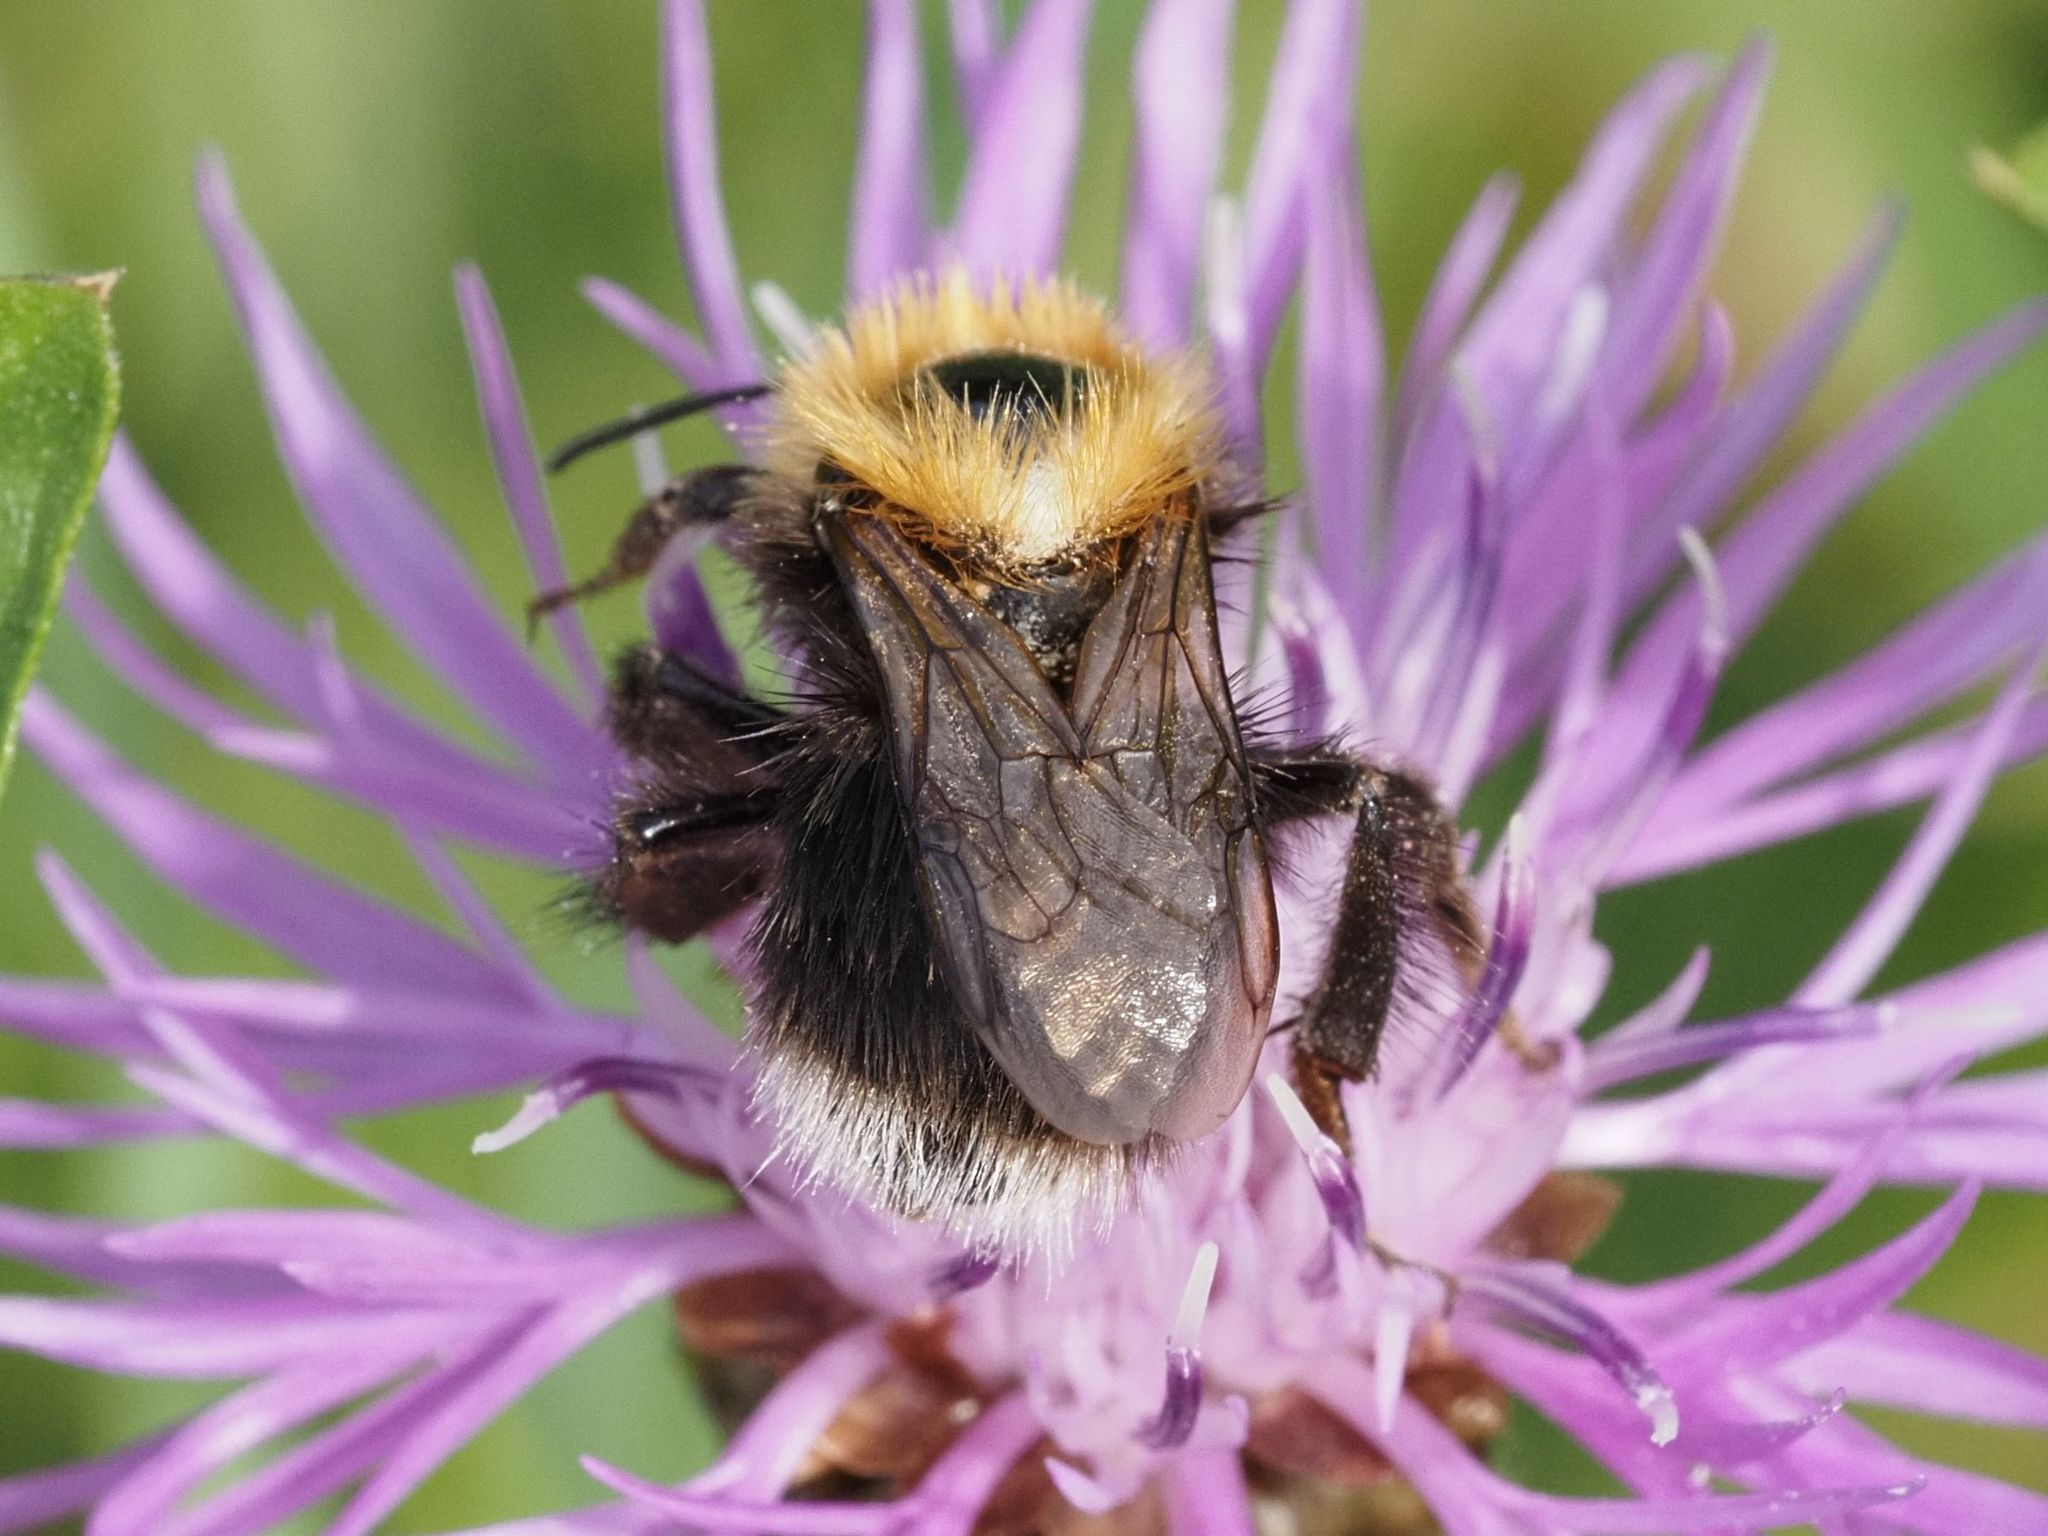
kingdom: Animalia
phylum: Arthropoda
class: Insecta
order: Hymenoptera
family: Apidae
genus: Bombus
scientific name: Bombus hypnorum
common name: New garden bumblebee
